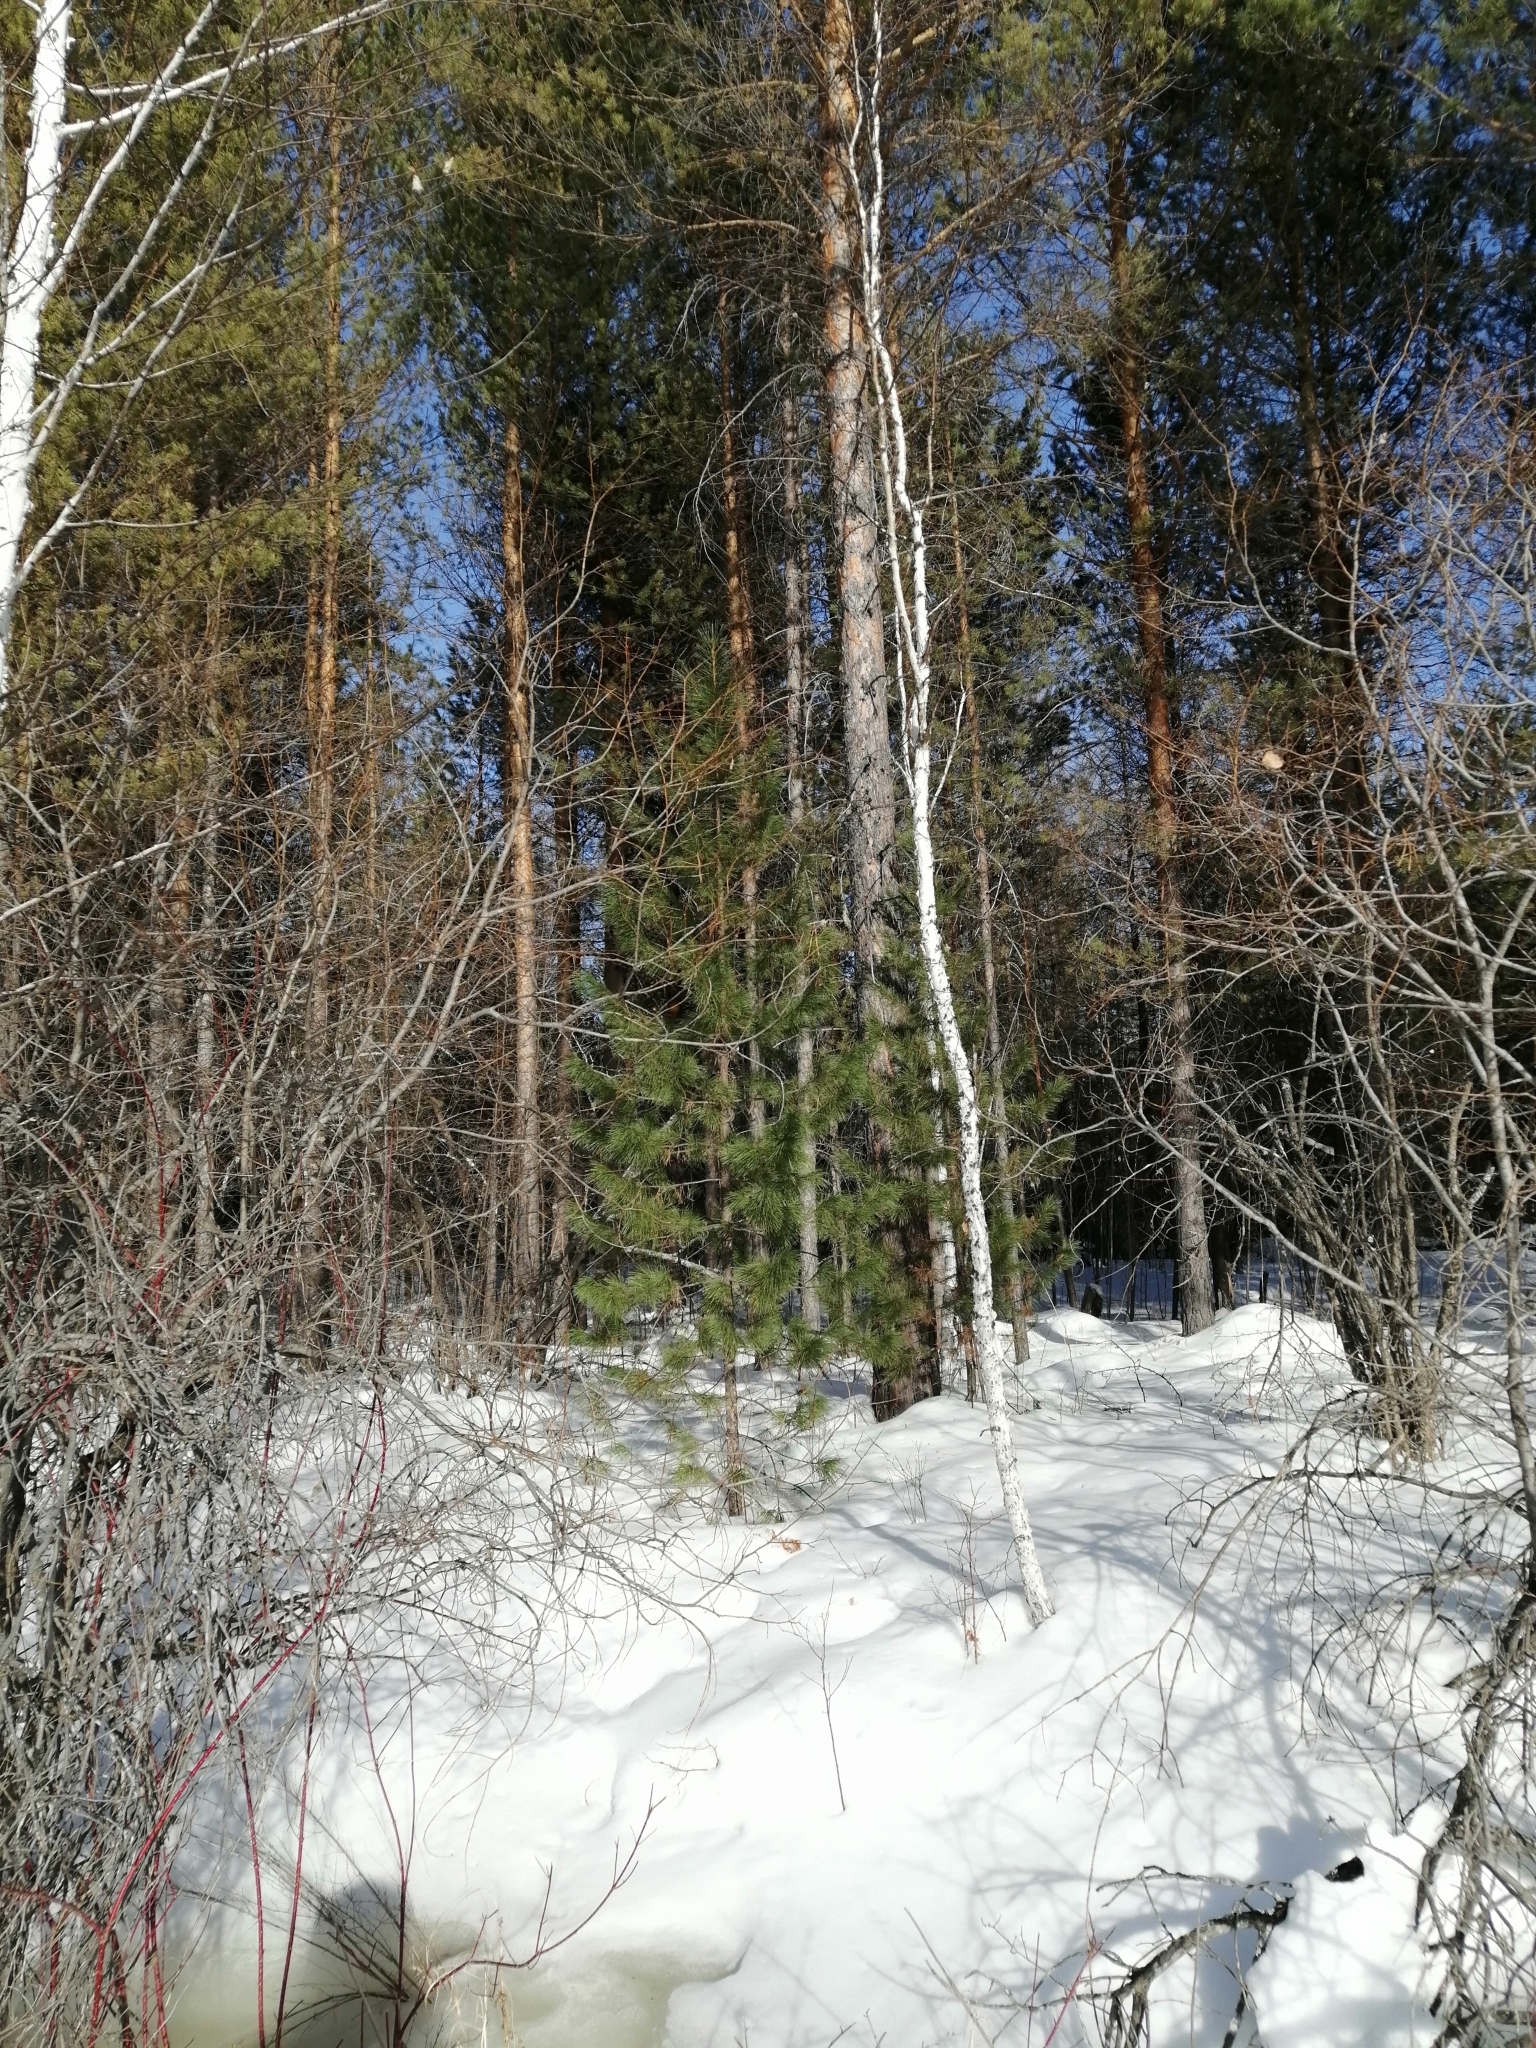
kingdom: Plantae
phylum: Tracheophyta
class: Pinopsida
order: Pinales
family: Pinaceae
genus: Pinus
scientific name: Pinus sibirica
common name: Siberian pine
